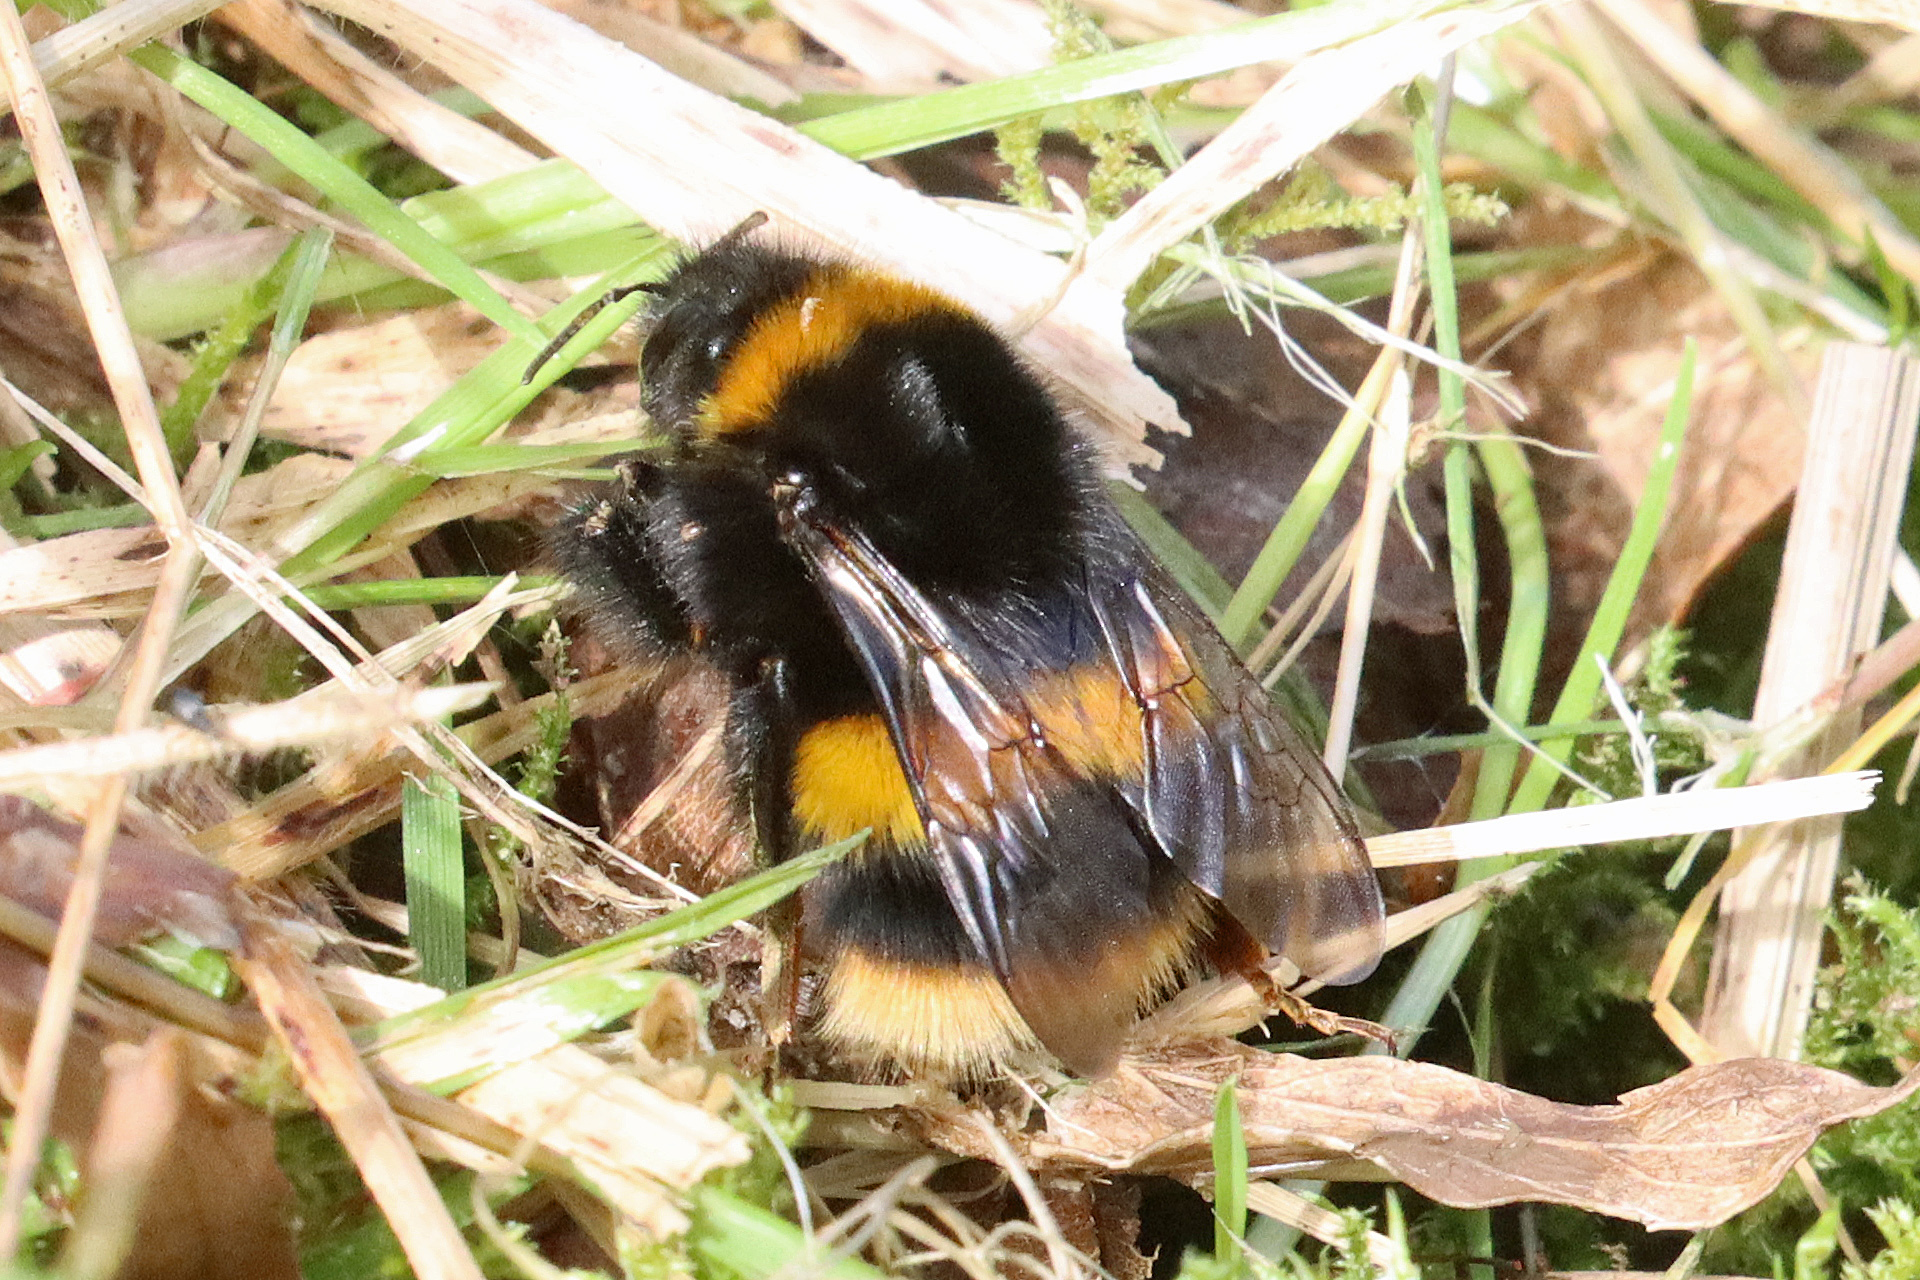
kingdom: Animalia
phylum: Arthropoda
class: Insecta
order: Hymenoptera
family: Apidae
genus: Bombus
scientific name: Bombus terrestris
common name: Buff-tailed bumblebee
